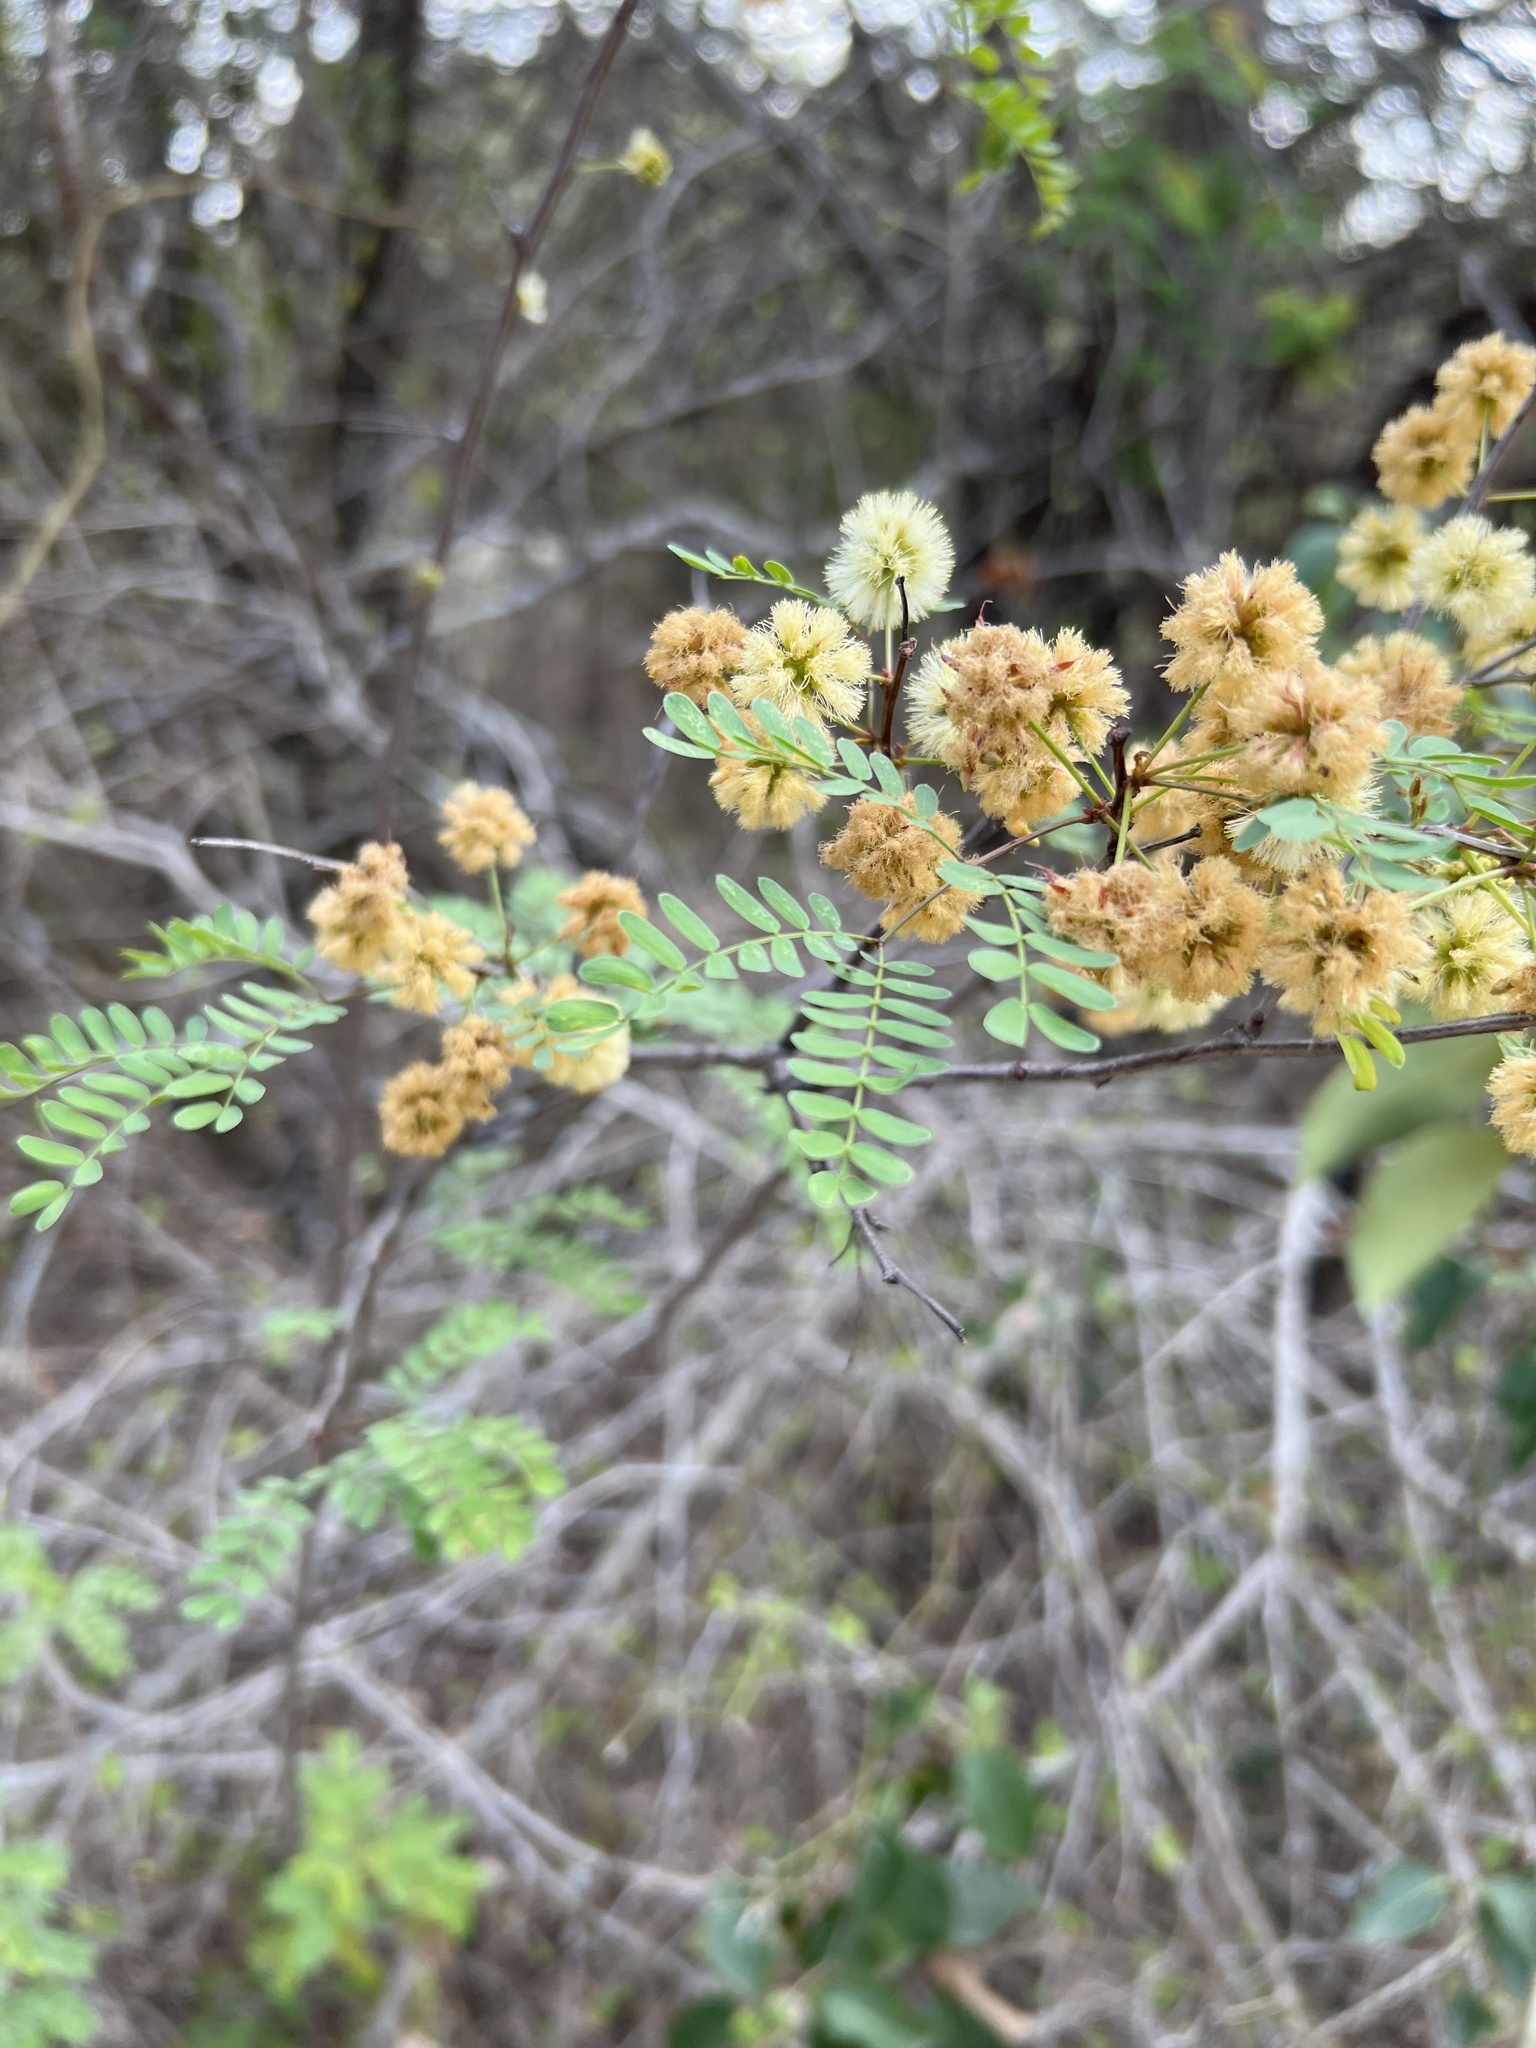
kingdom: Plantae
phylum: Tracheophyta
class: Magnoliopsida
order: Fabales
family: Fabaceae
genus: Senegalia
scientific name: Senegalia roemeriana
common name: Roemer's acacia
